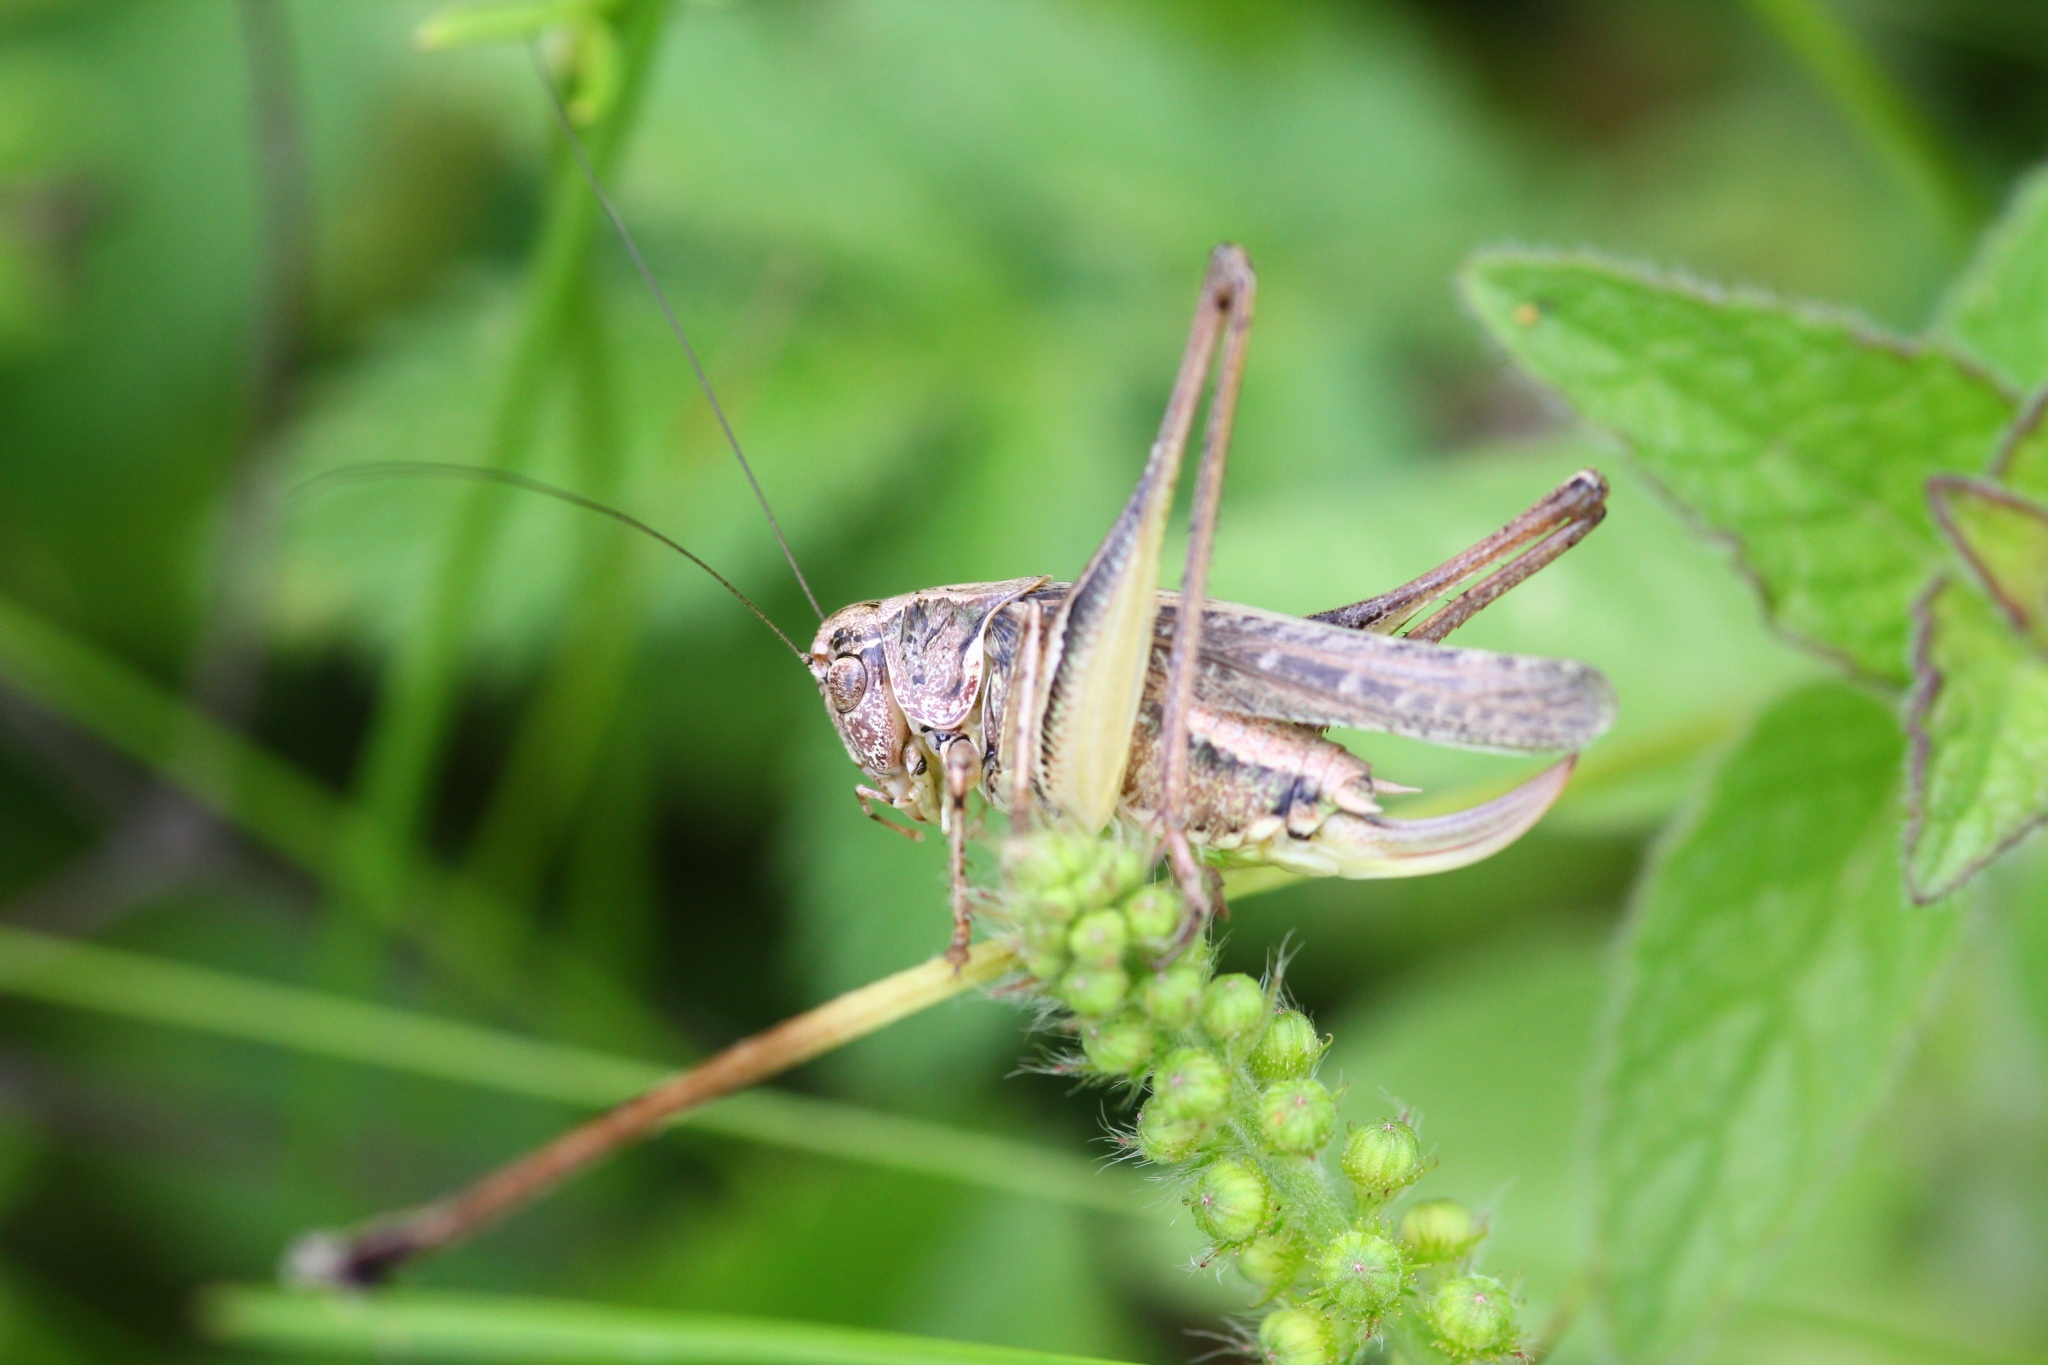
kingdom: Animalia
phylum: Arthropoda
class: Insecta
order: Orthoptera
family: Tettigoniidae
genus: Platycleis
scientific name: Platycleis albopunctata
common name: Grey bush-cricket
